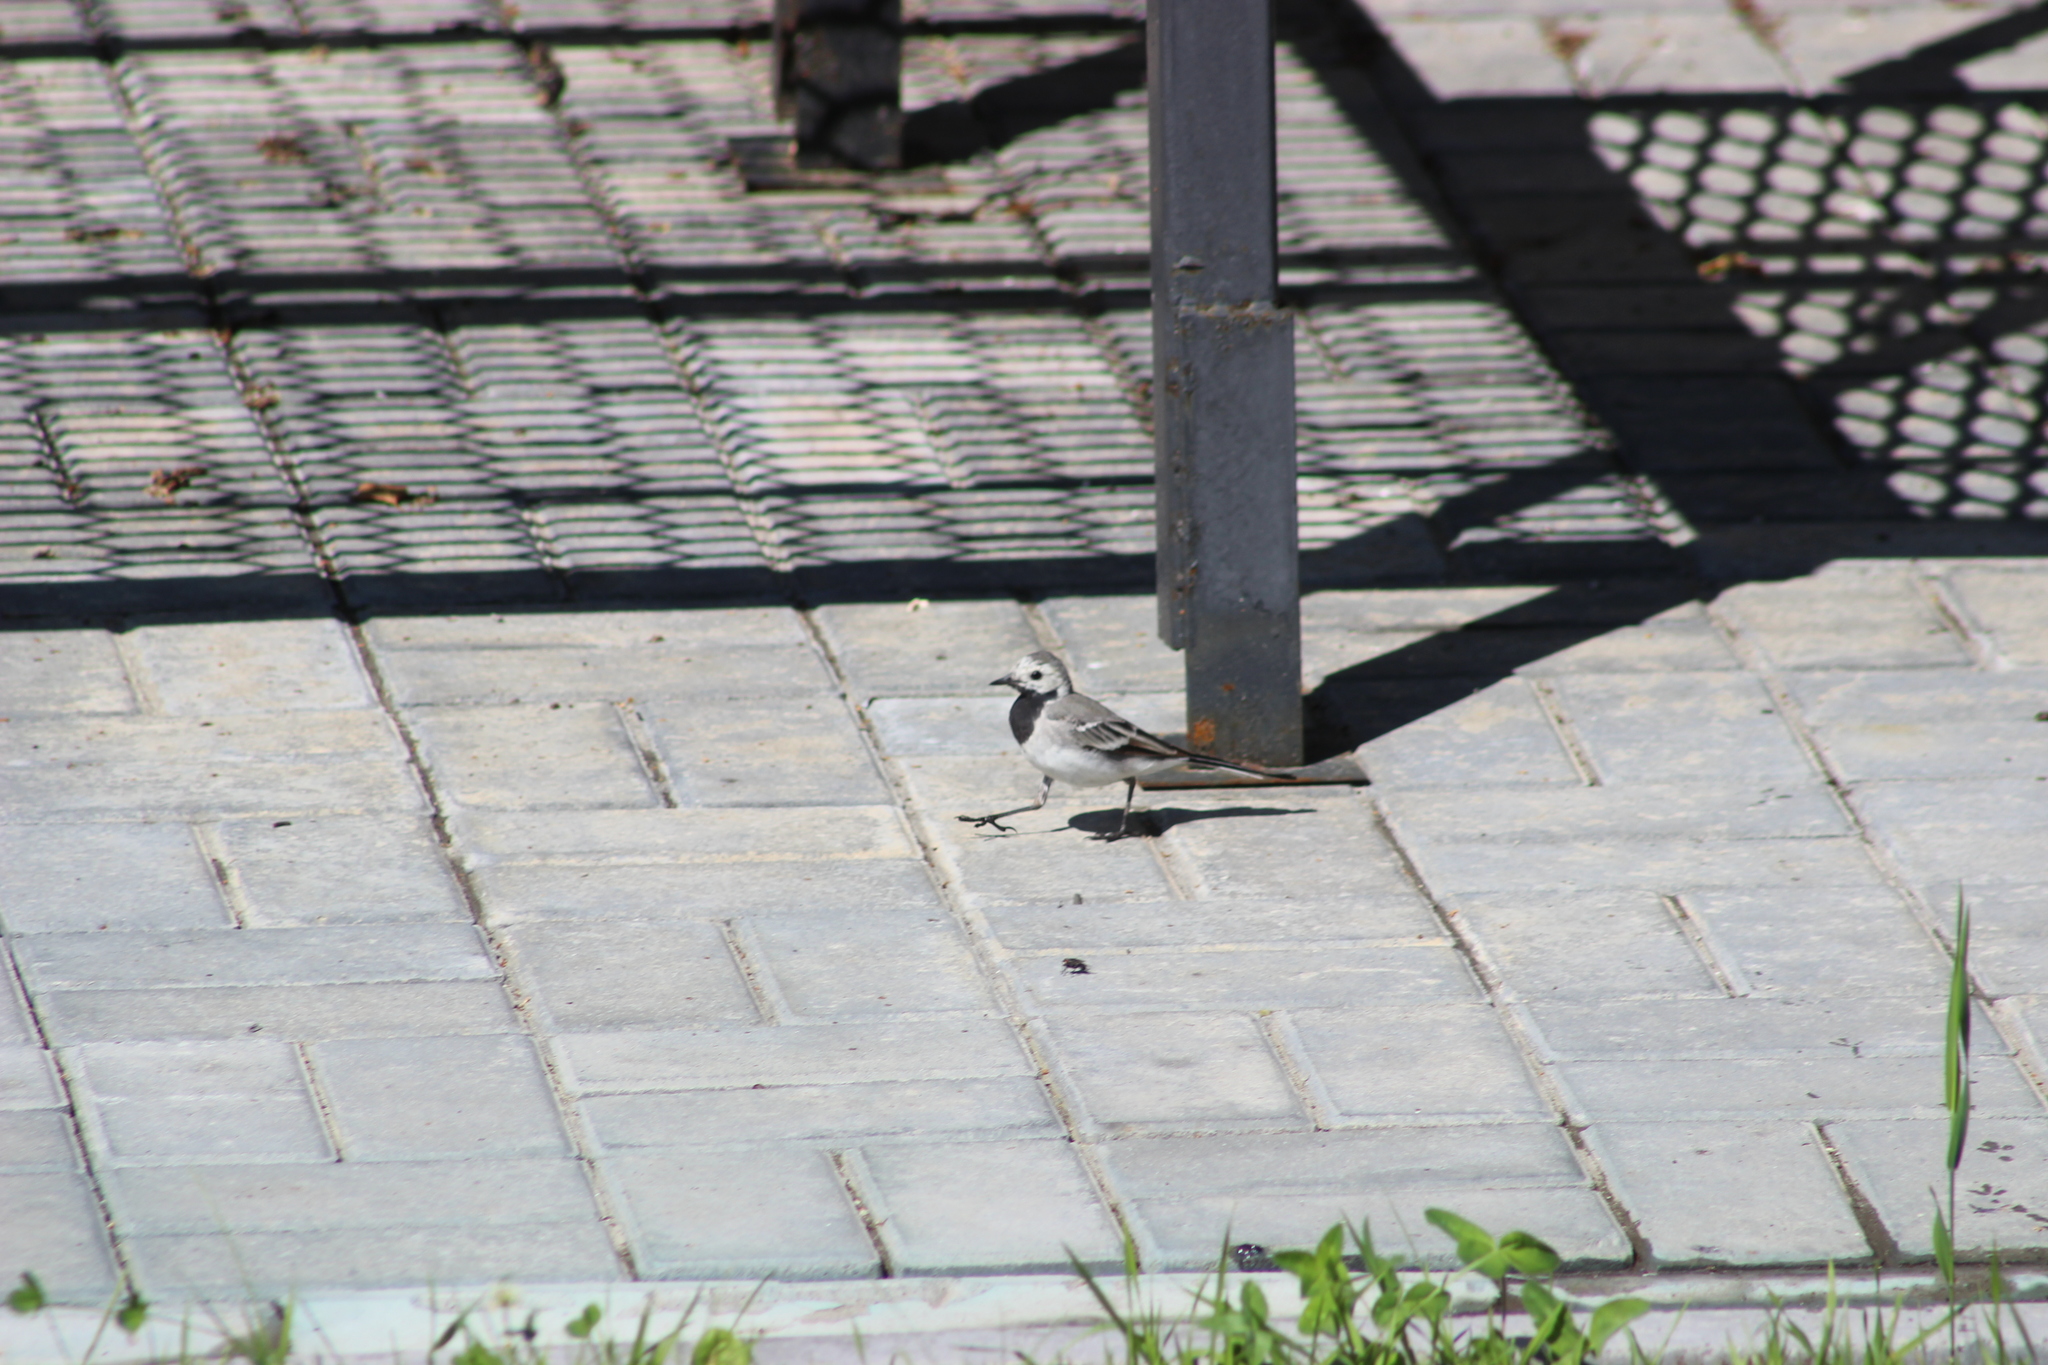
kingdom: Animalia
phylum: Chordata
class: Aves
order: Passeriformes
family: Motacillidae
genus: Motacilla
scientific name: Motacilla alba
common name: White wagtail
